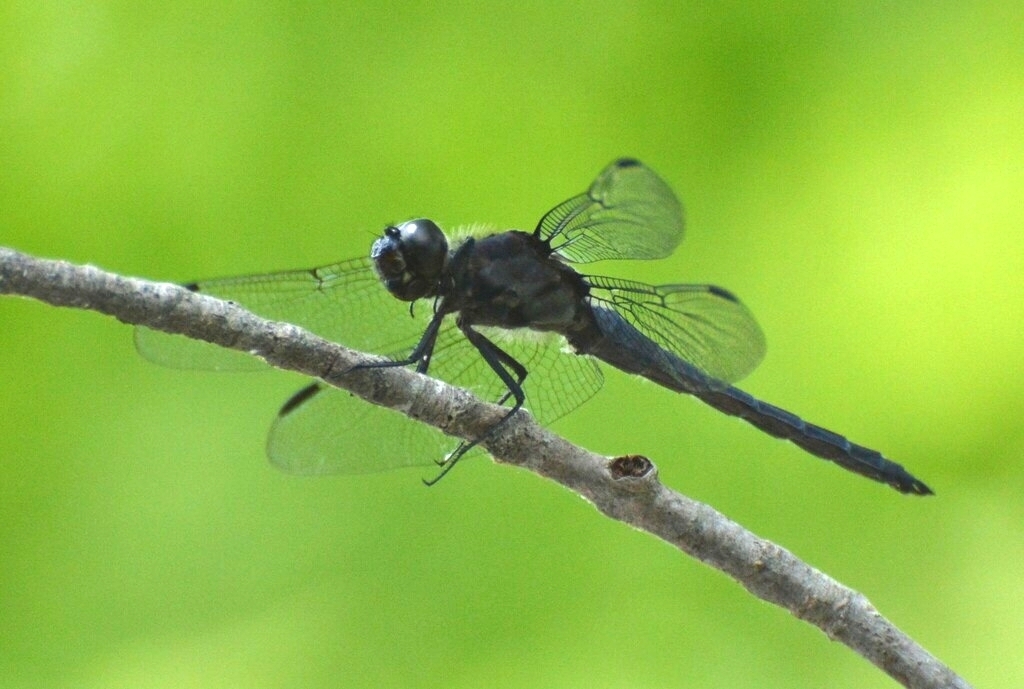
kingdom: Animalia
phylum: Arthropoda
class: Insecta
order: Odonata
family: Libellulidae
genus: Libellula
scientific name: Libellula incesta
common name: Slaty skimmer
